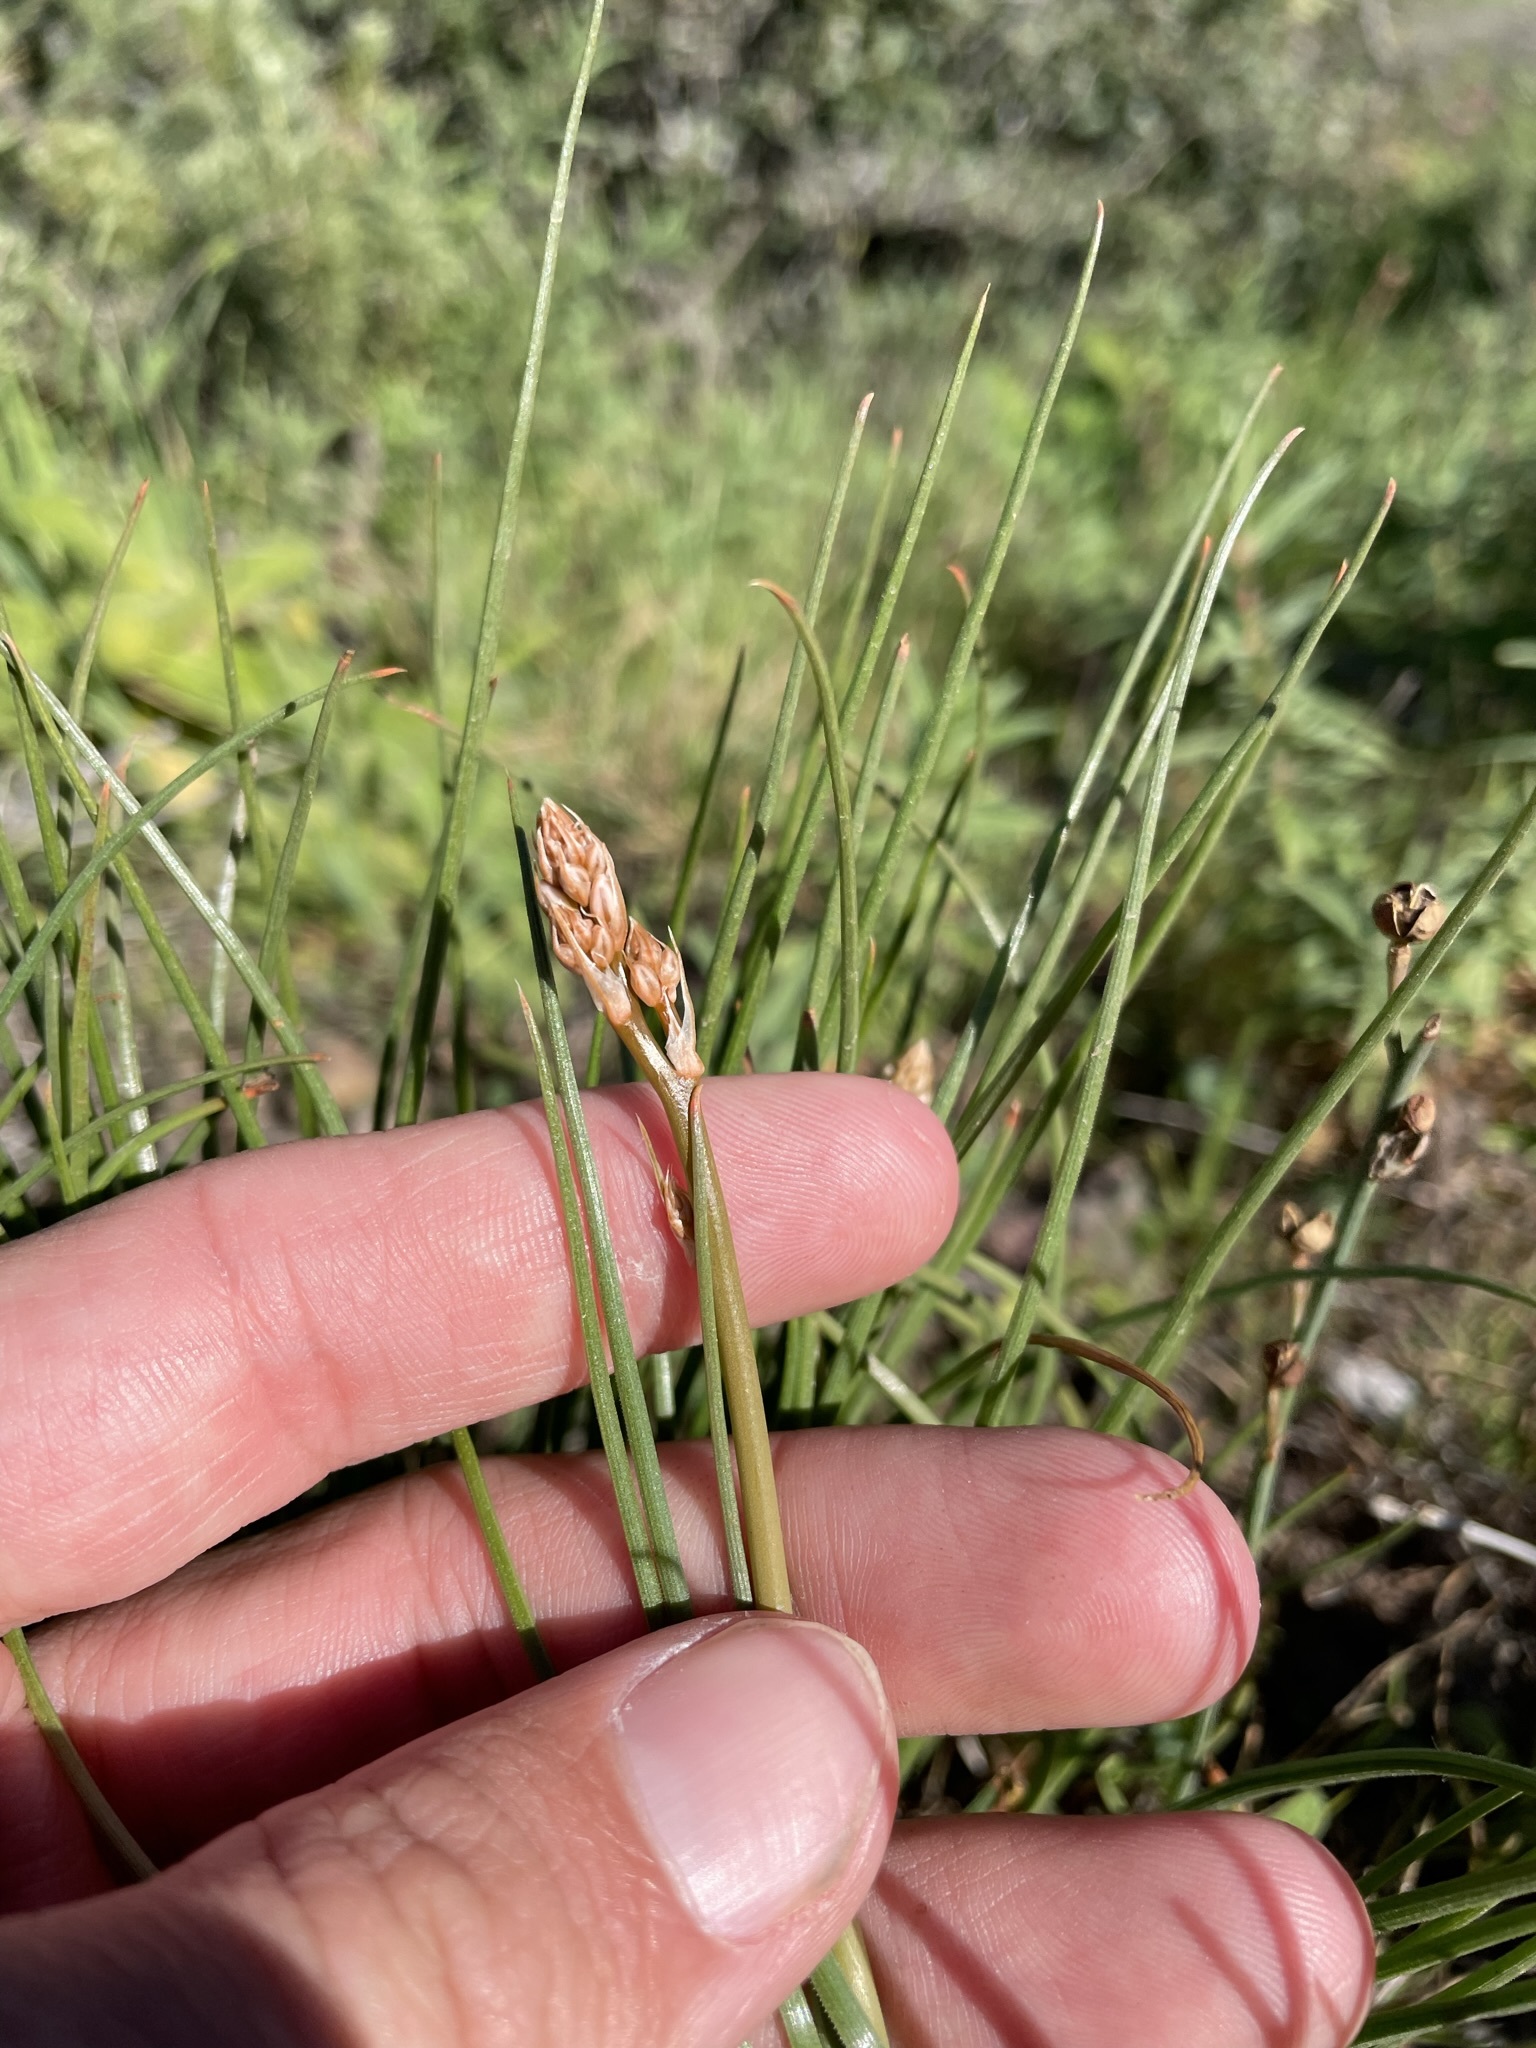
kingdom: Plantae
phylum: Tracheophyta
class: Liliopsida
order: Asparagales
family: Asphodelaceae
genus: Asphodelus
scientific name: Asphodelus fistulosus
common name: Onionweed
